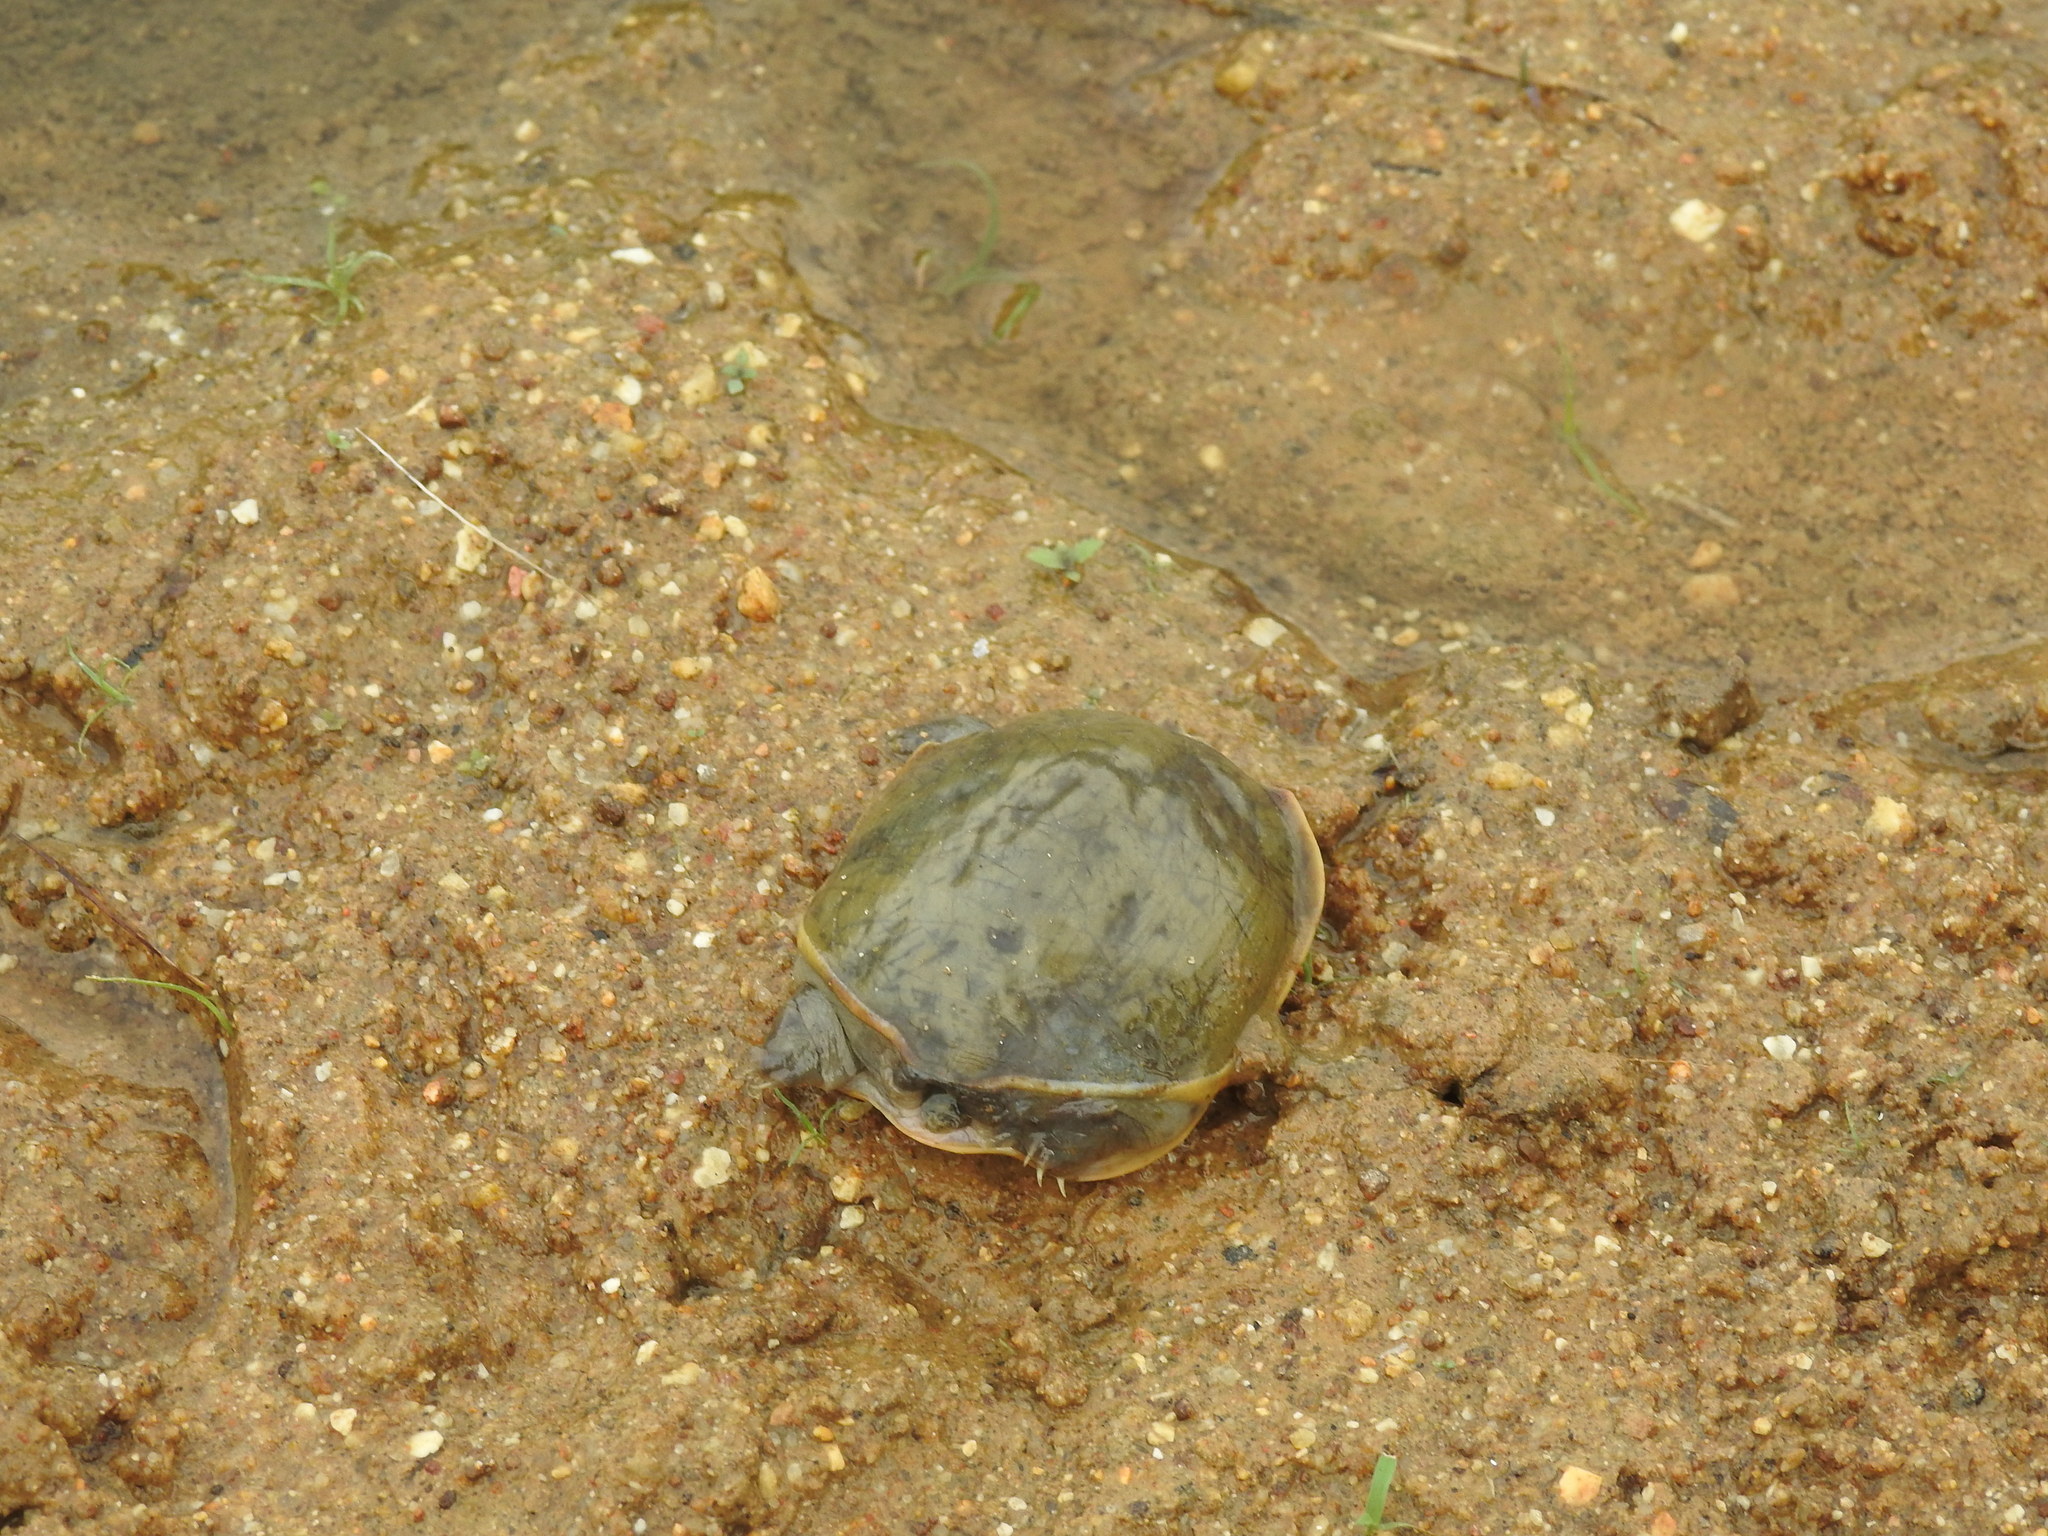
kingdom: Animalia
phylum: Chordata
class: Testudines
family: Trionychidae
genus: Lissemys
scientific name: Lissemys punctata
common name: Indian flap-shelled turtle
